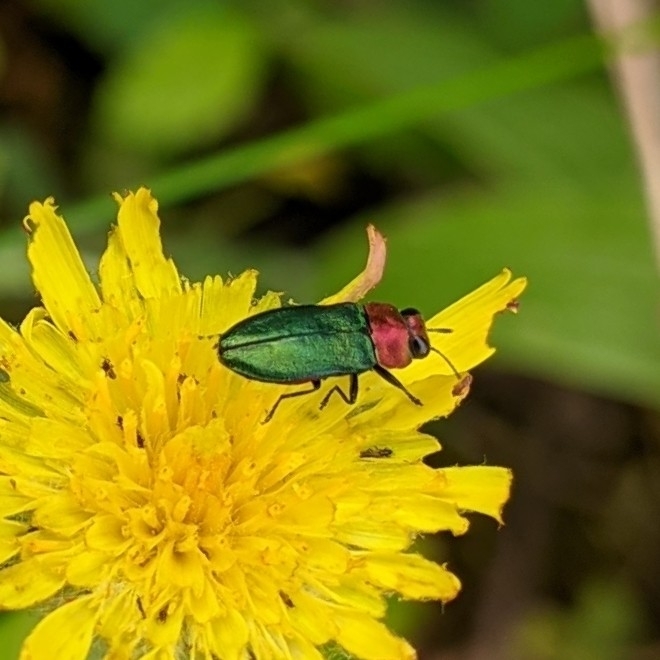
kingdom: Animalia
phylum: Arthropoda
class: Insecta
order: Coleoptera
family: Buprestidae
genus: Anthaxia
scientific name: Anthaxia nitidula
